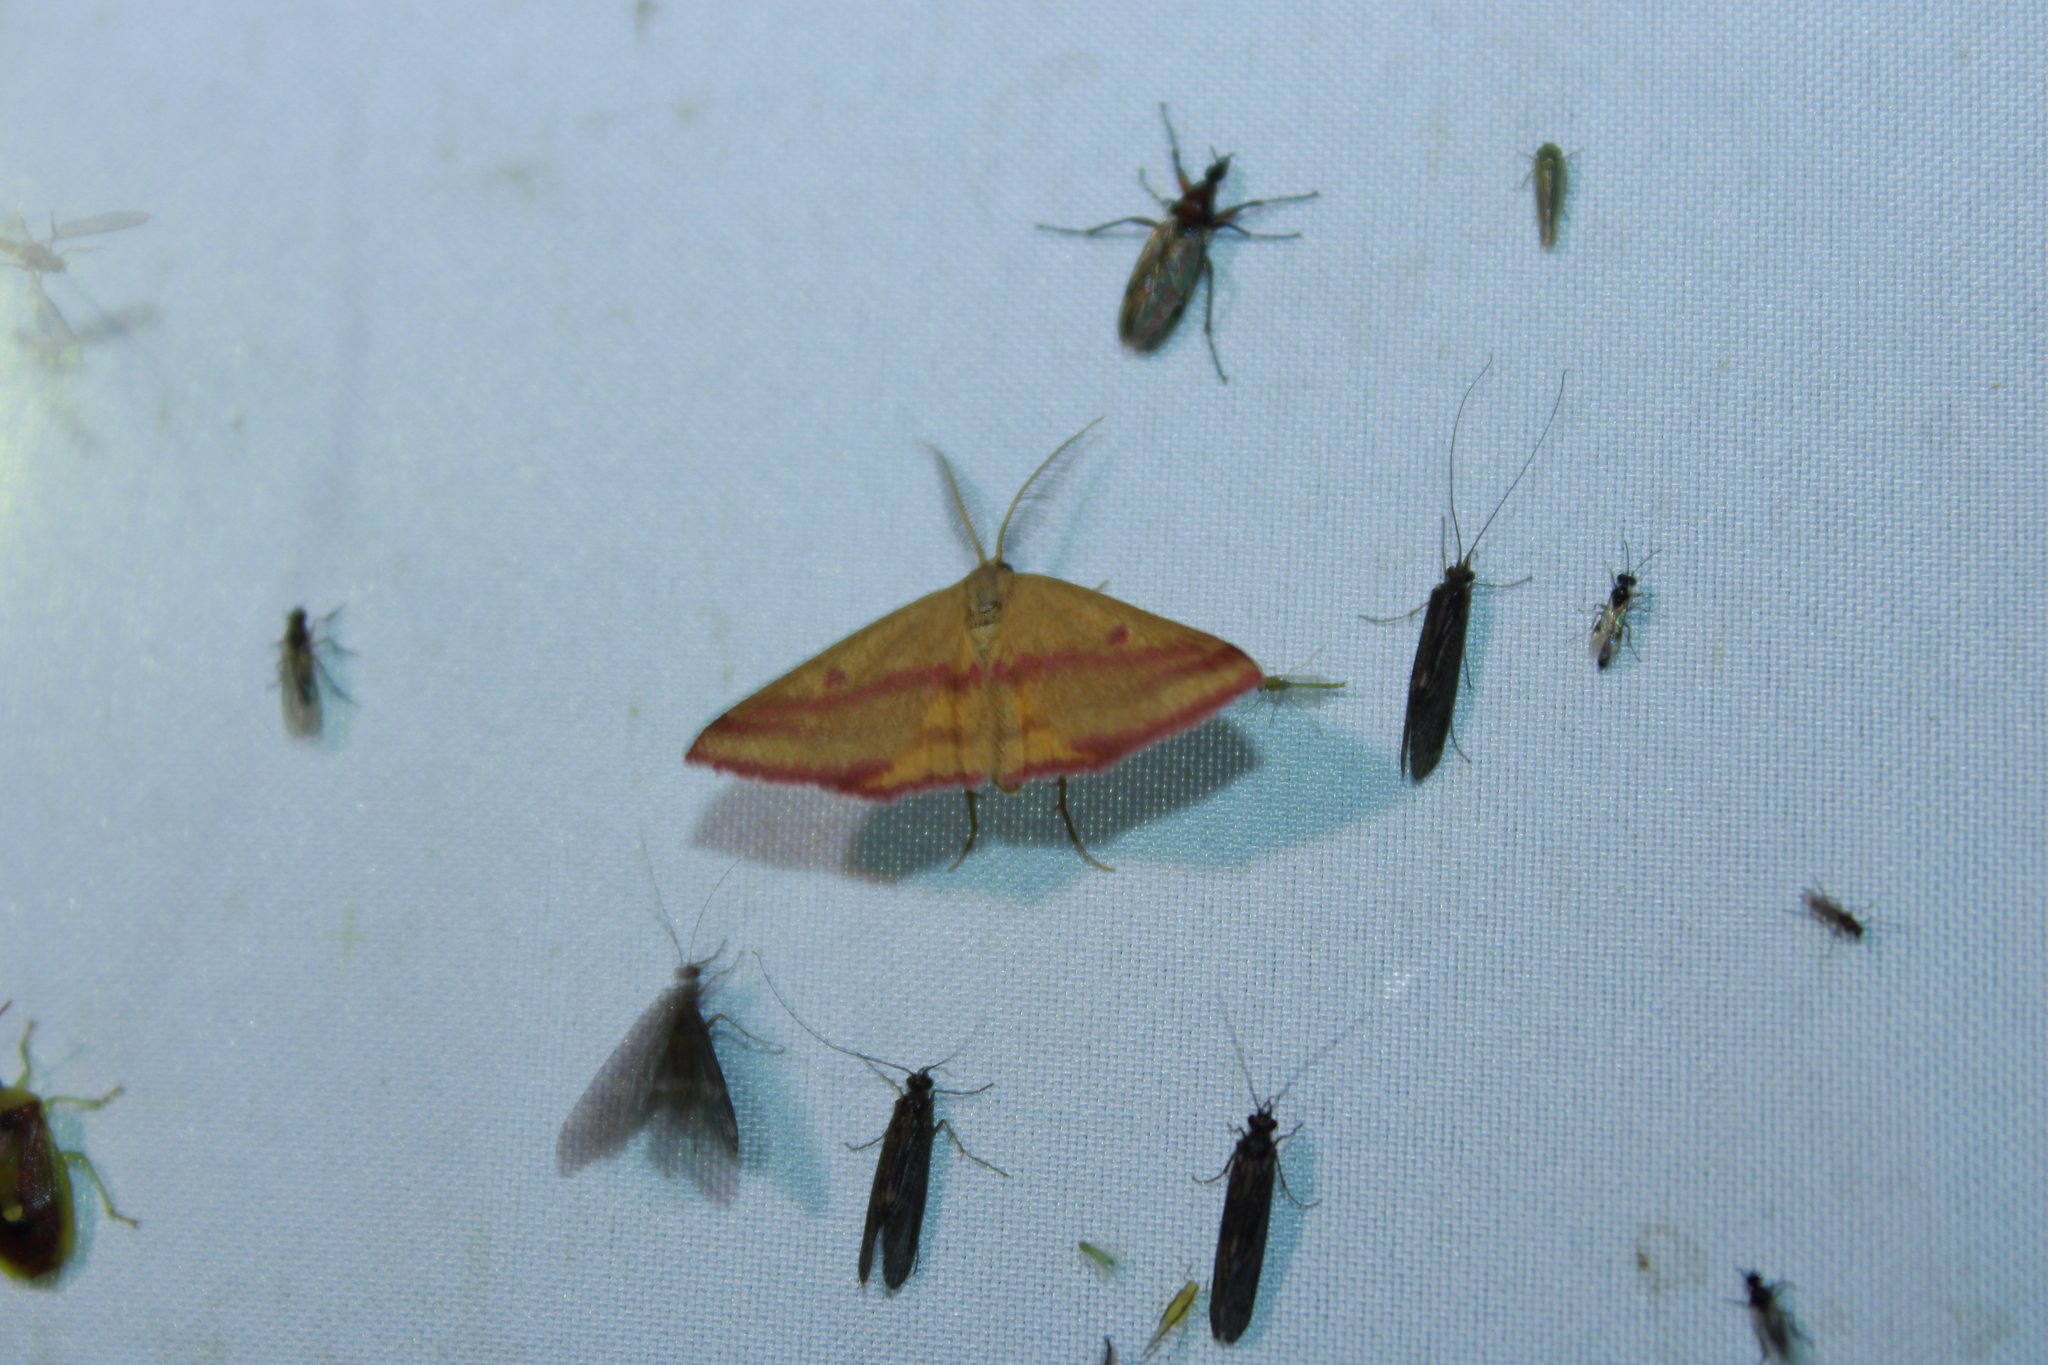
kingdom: Animalia
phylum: Arthropoda
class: Insecta
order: Lepidoptera
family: Geometridae
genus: Haematopis
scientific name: Haematopis grataria
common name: Chickweed geometer
